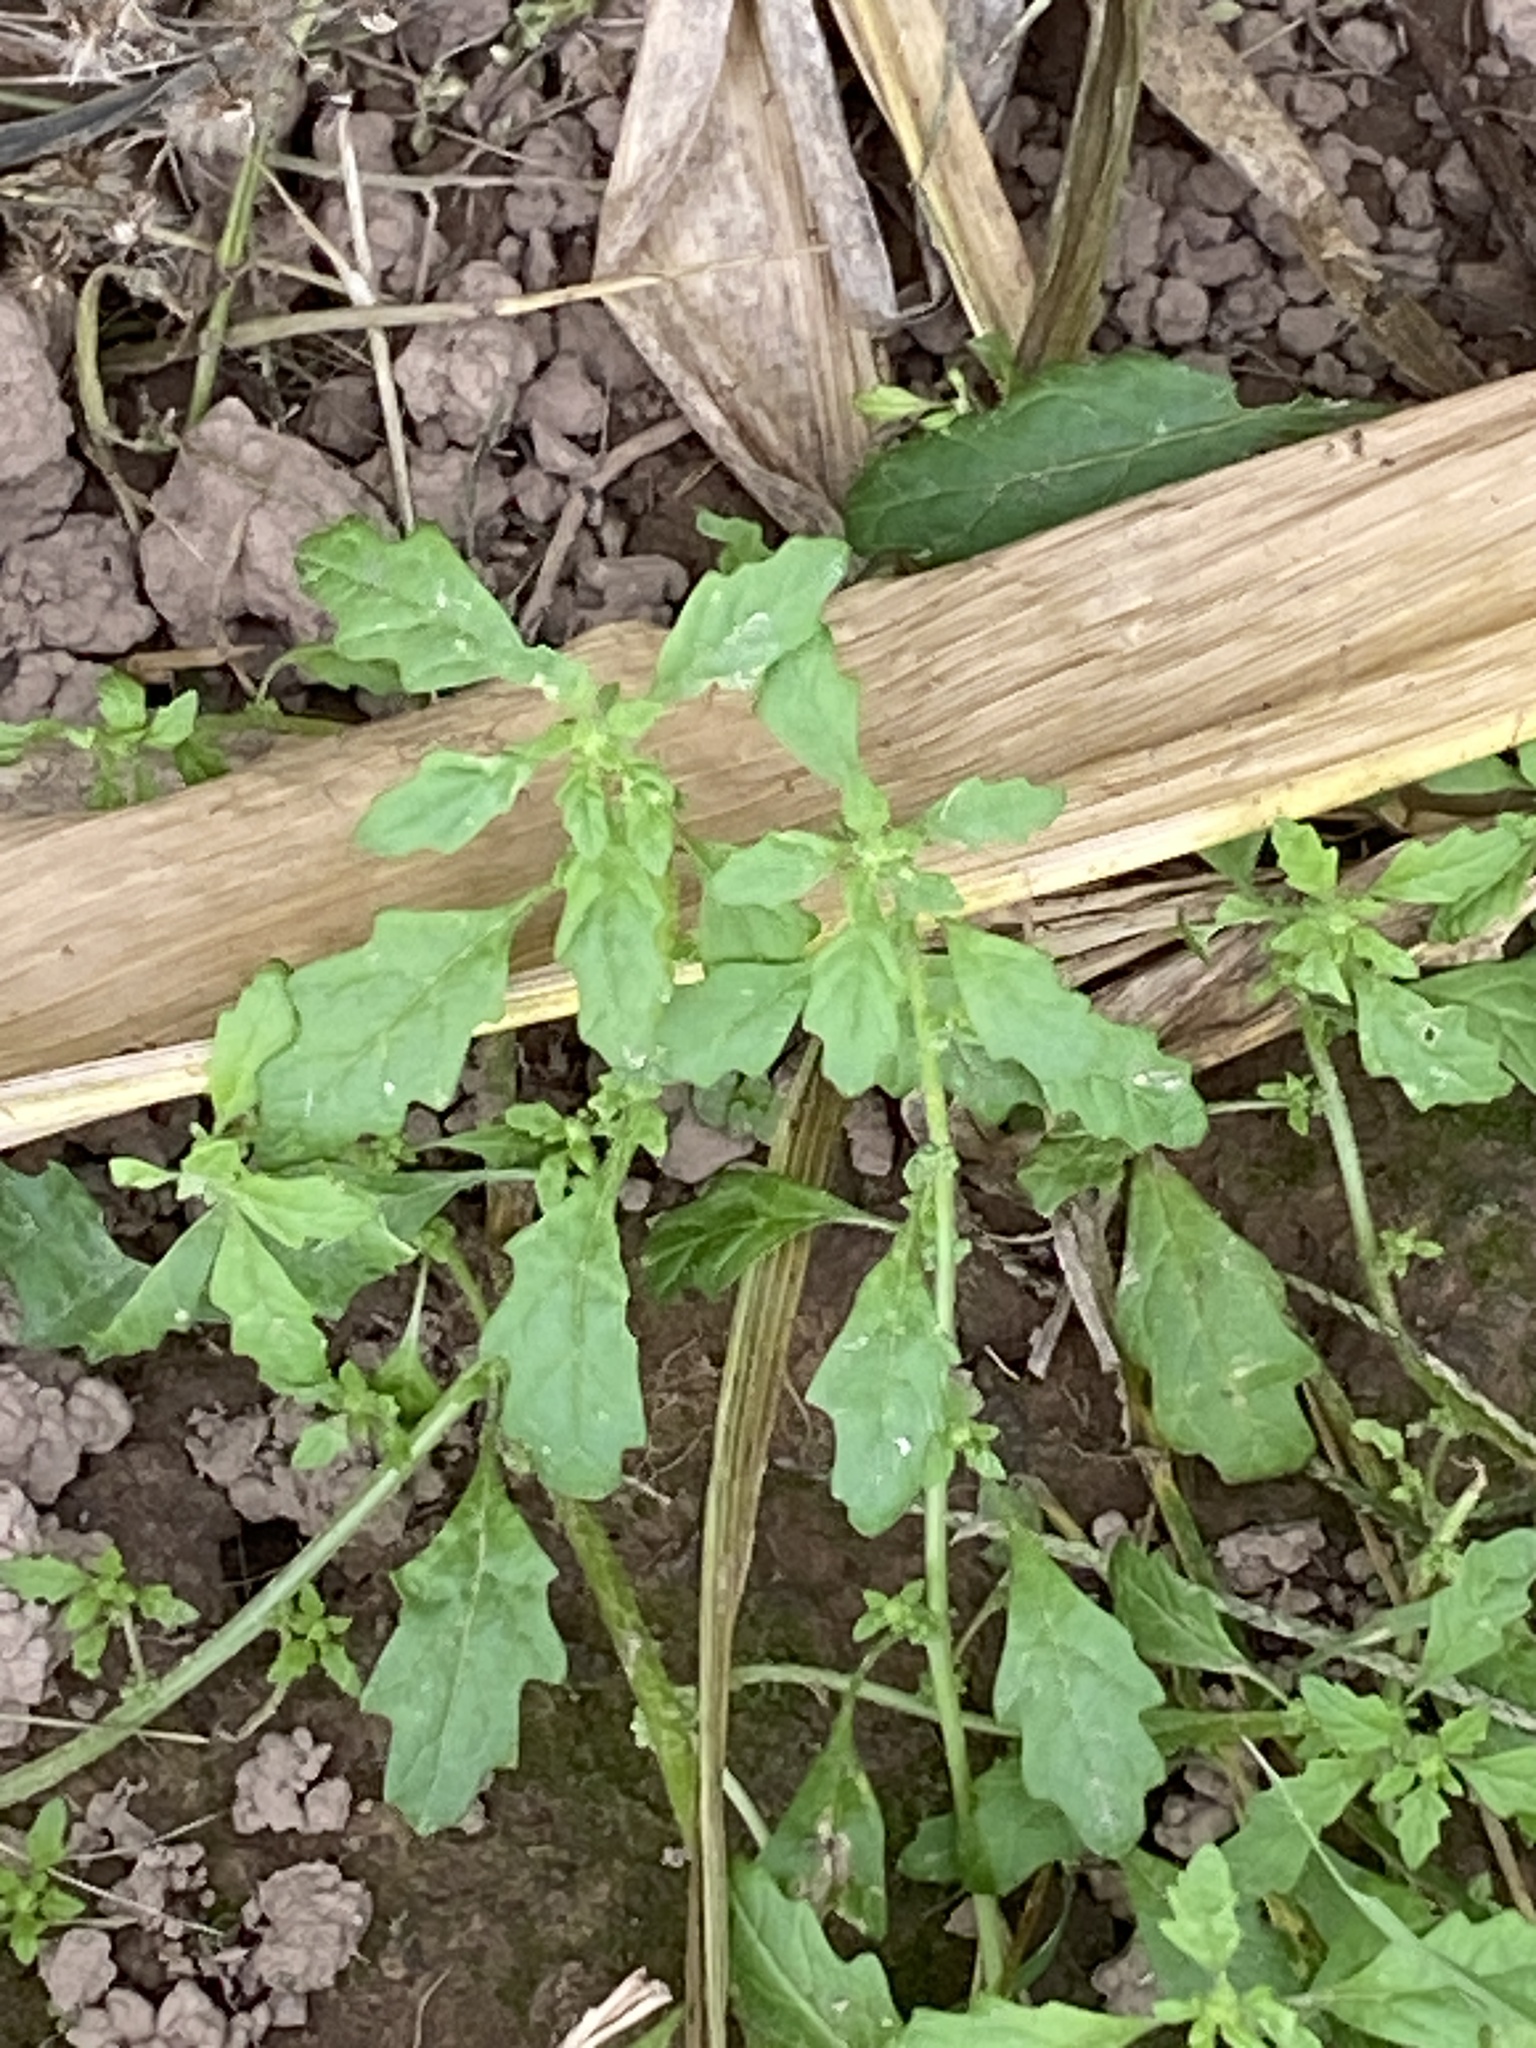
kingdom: Plantae
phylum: Tracheophyta
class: Magnoliopsida
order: Caryophyllales
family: Amaranthaceae
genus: Dysphania
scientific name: Dysphania pumilio
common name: Clammy goosefoot
